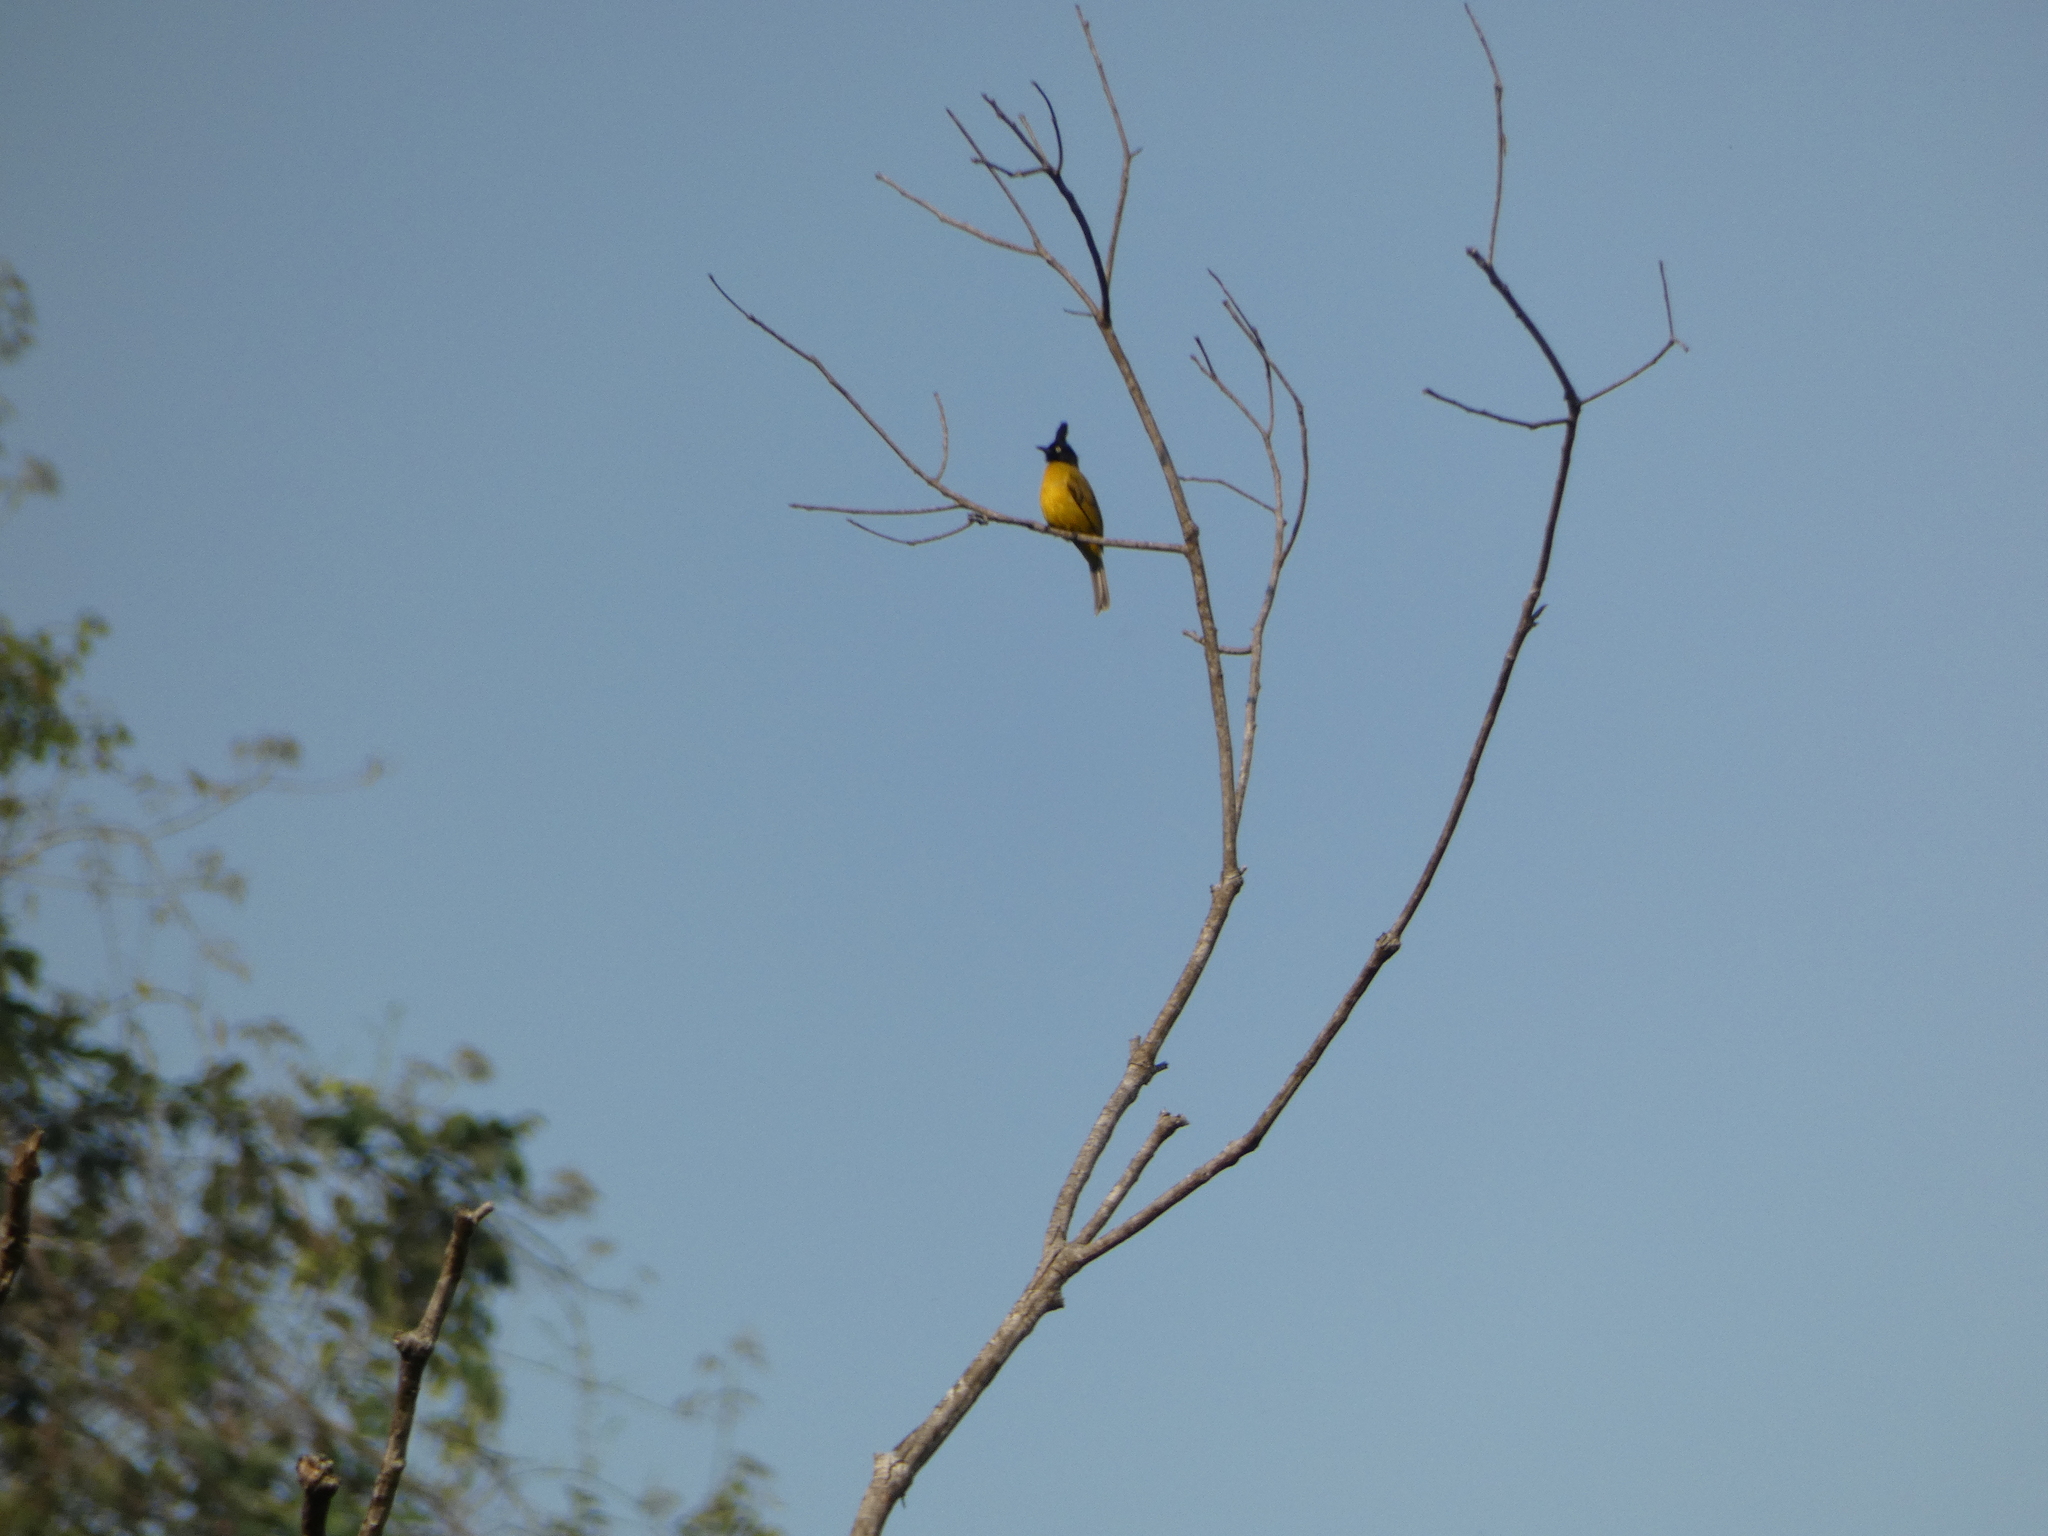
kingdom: Animalia
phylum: Chordata
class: Aves
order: Passeriformes
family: Pycnonotidae
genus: Pycnonotus
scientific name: Pycnonotus flaviventris
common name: Black-crested bulbul
